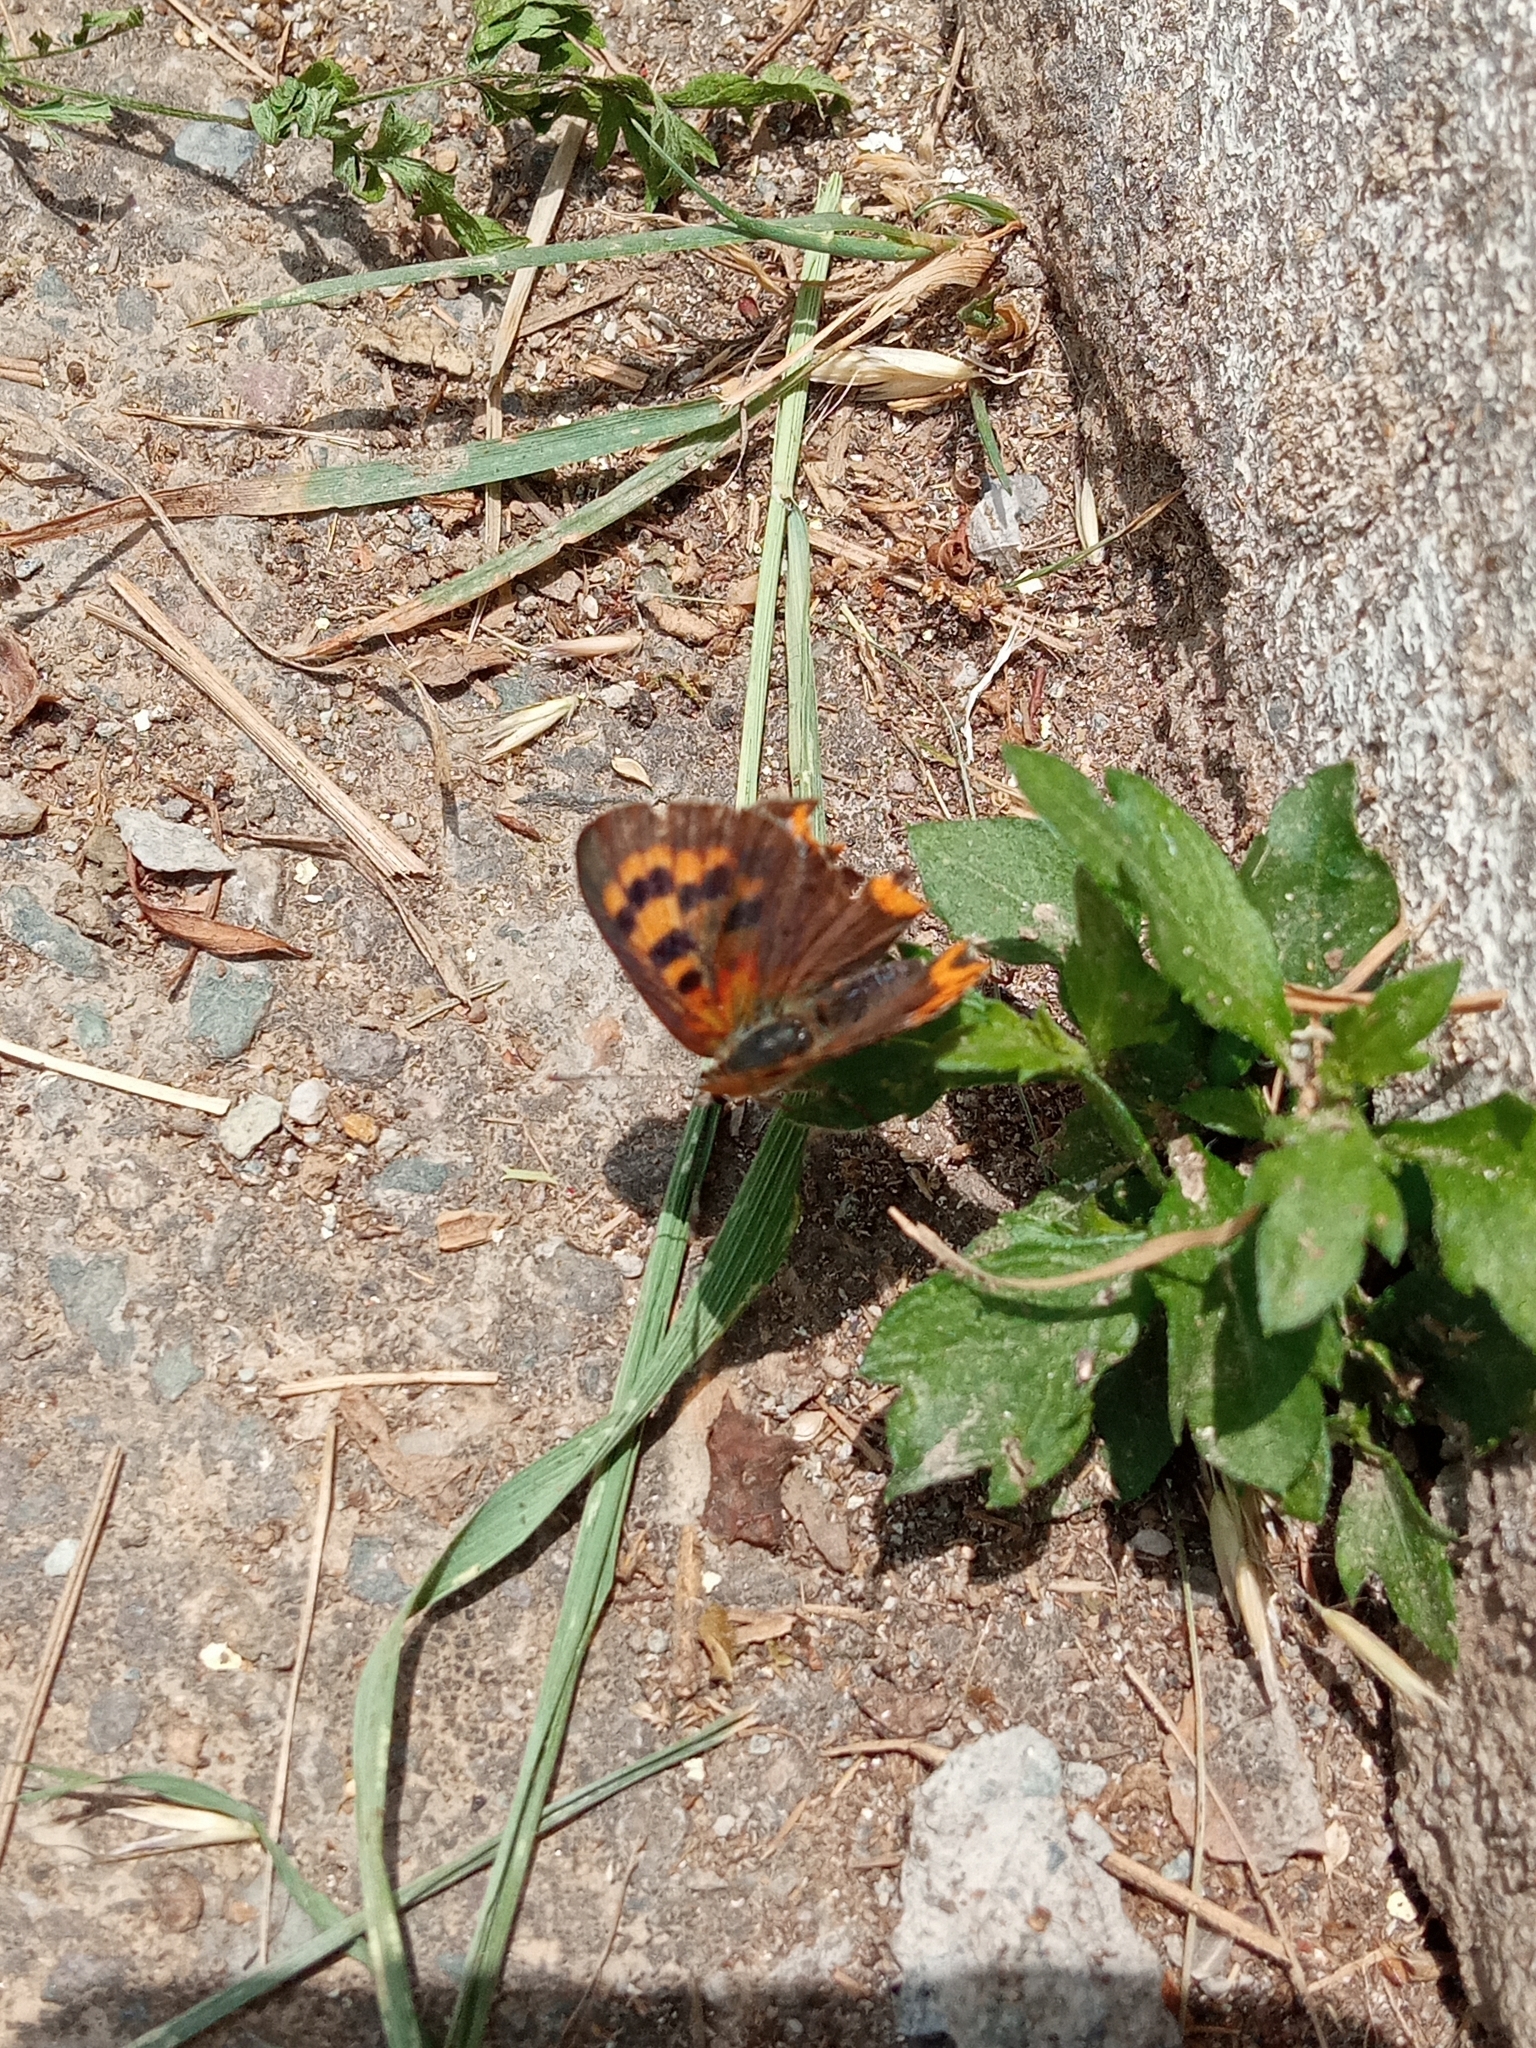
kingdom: Animalia
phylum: Arthropoda
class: Insecta
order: Lepidoptera
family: Lycaenidae
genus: Lycaena
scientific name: Lycaena phlaeas
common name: Small copper
